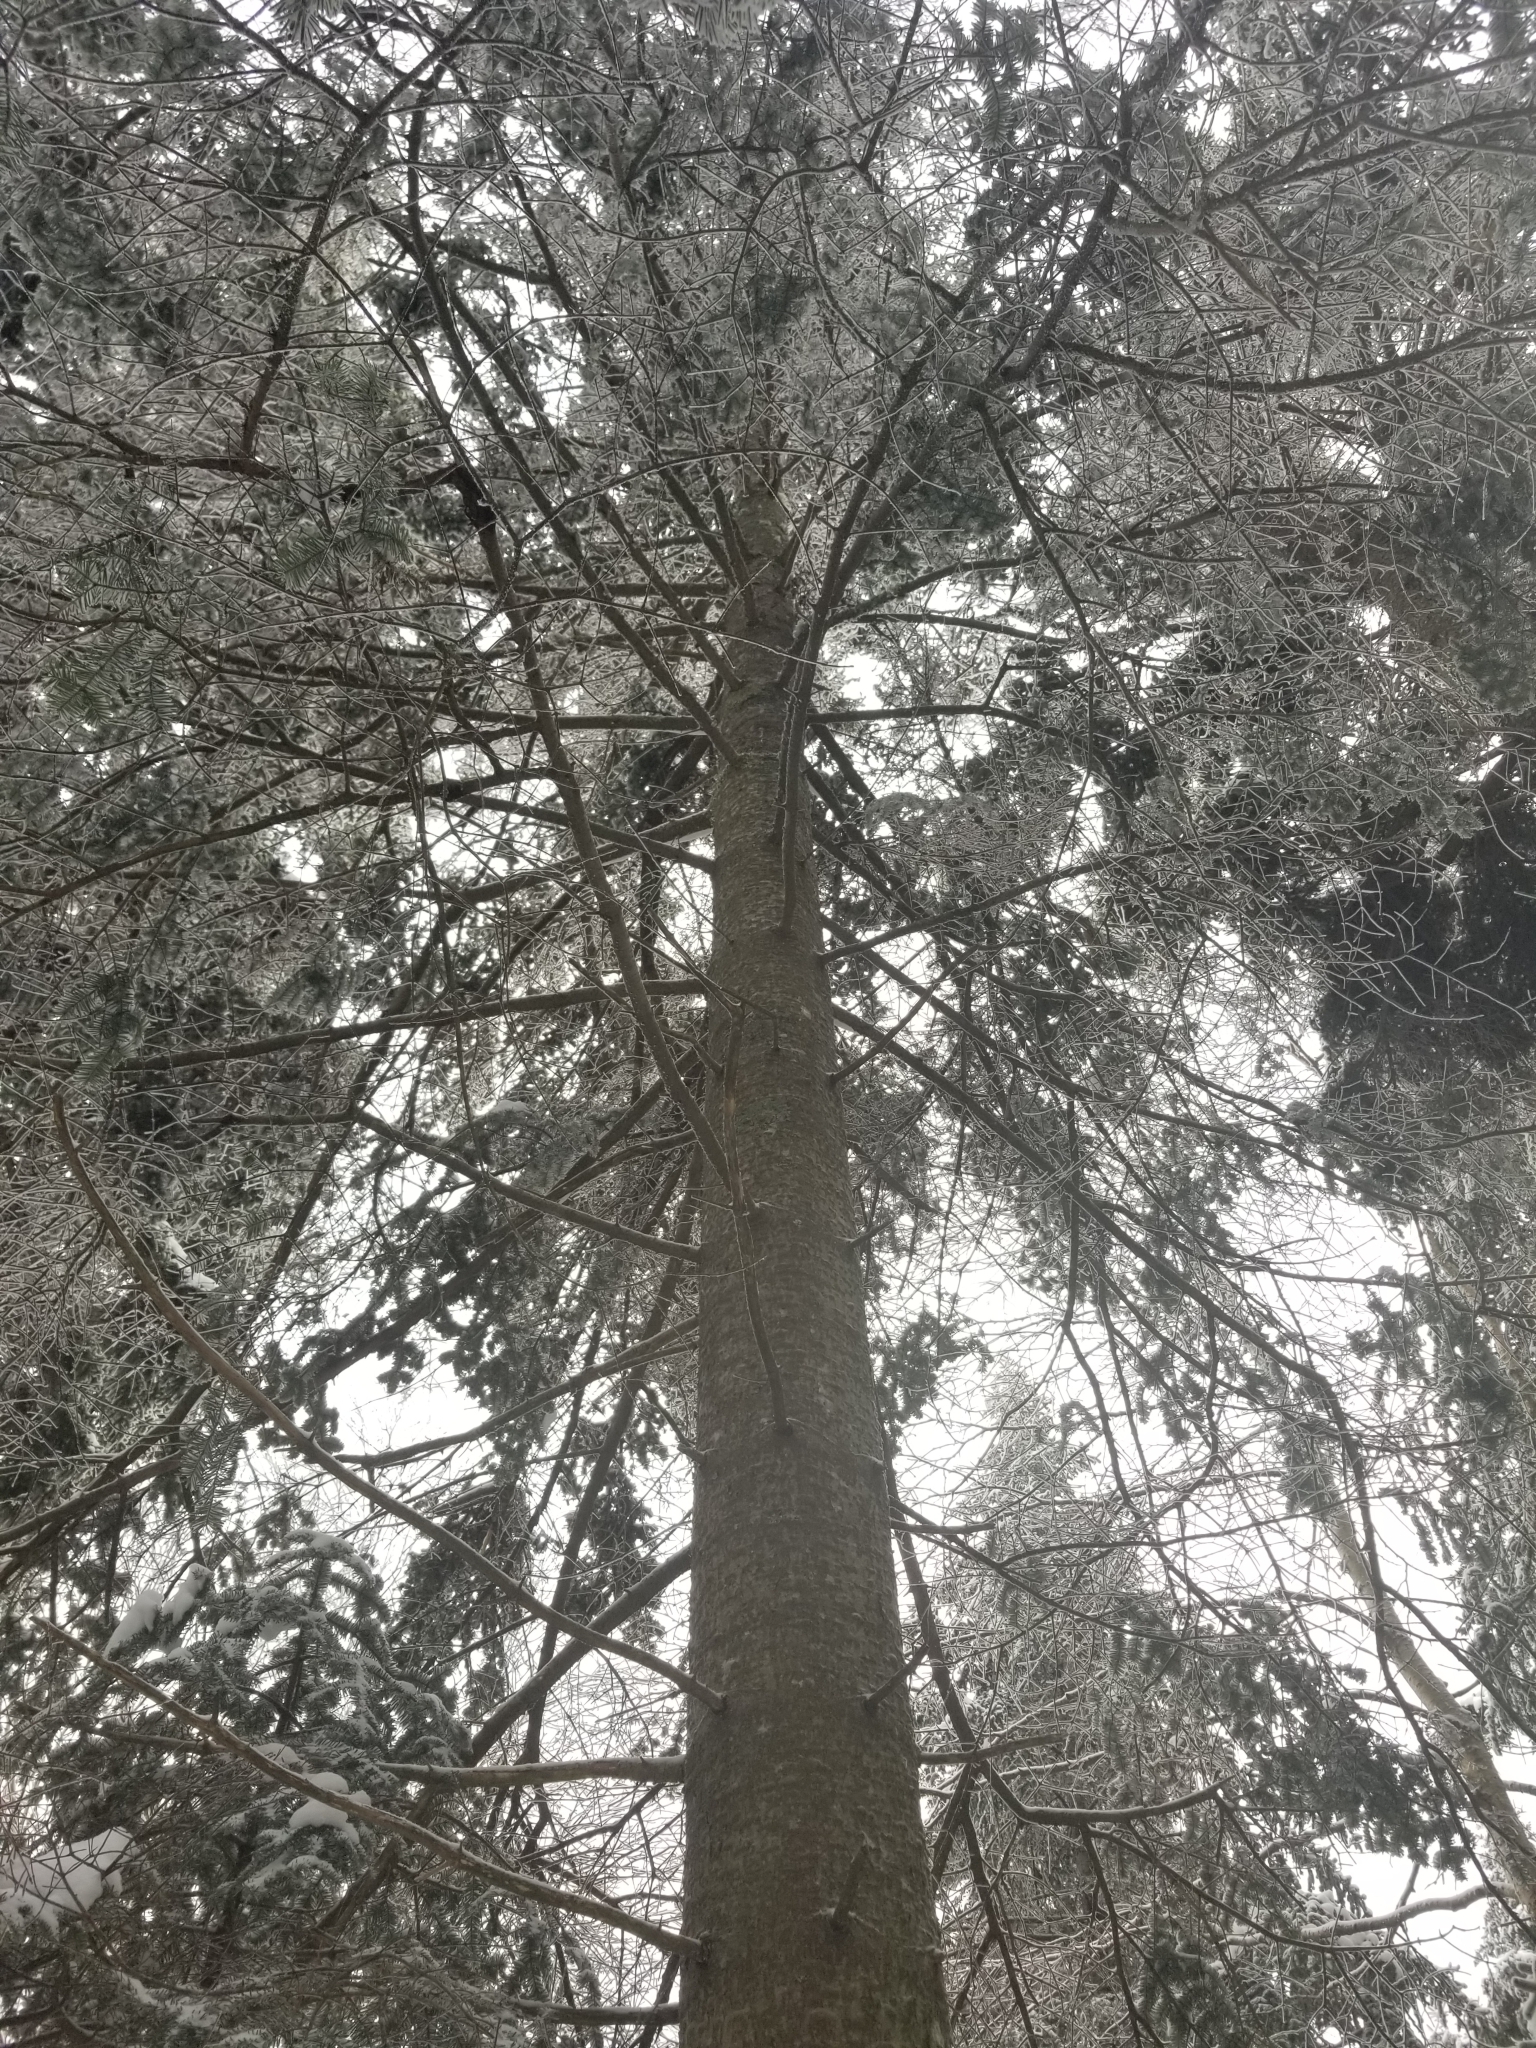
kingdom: Plantae
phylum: Tracheophyta
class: Pinopsida
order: Pinales
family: Pinaceae
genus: Abies
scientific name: Abies balsamea
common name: Balsam fir
